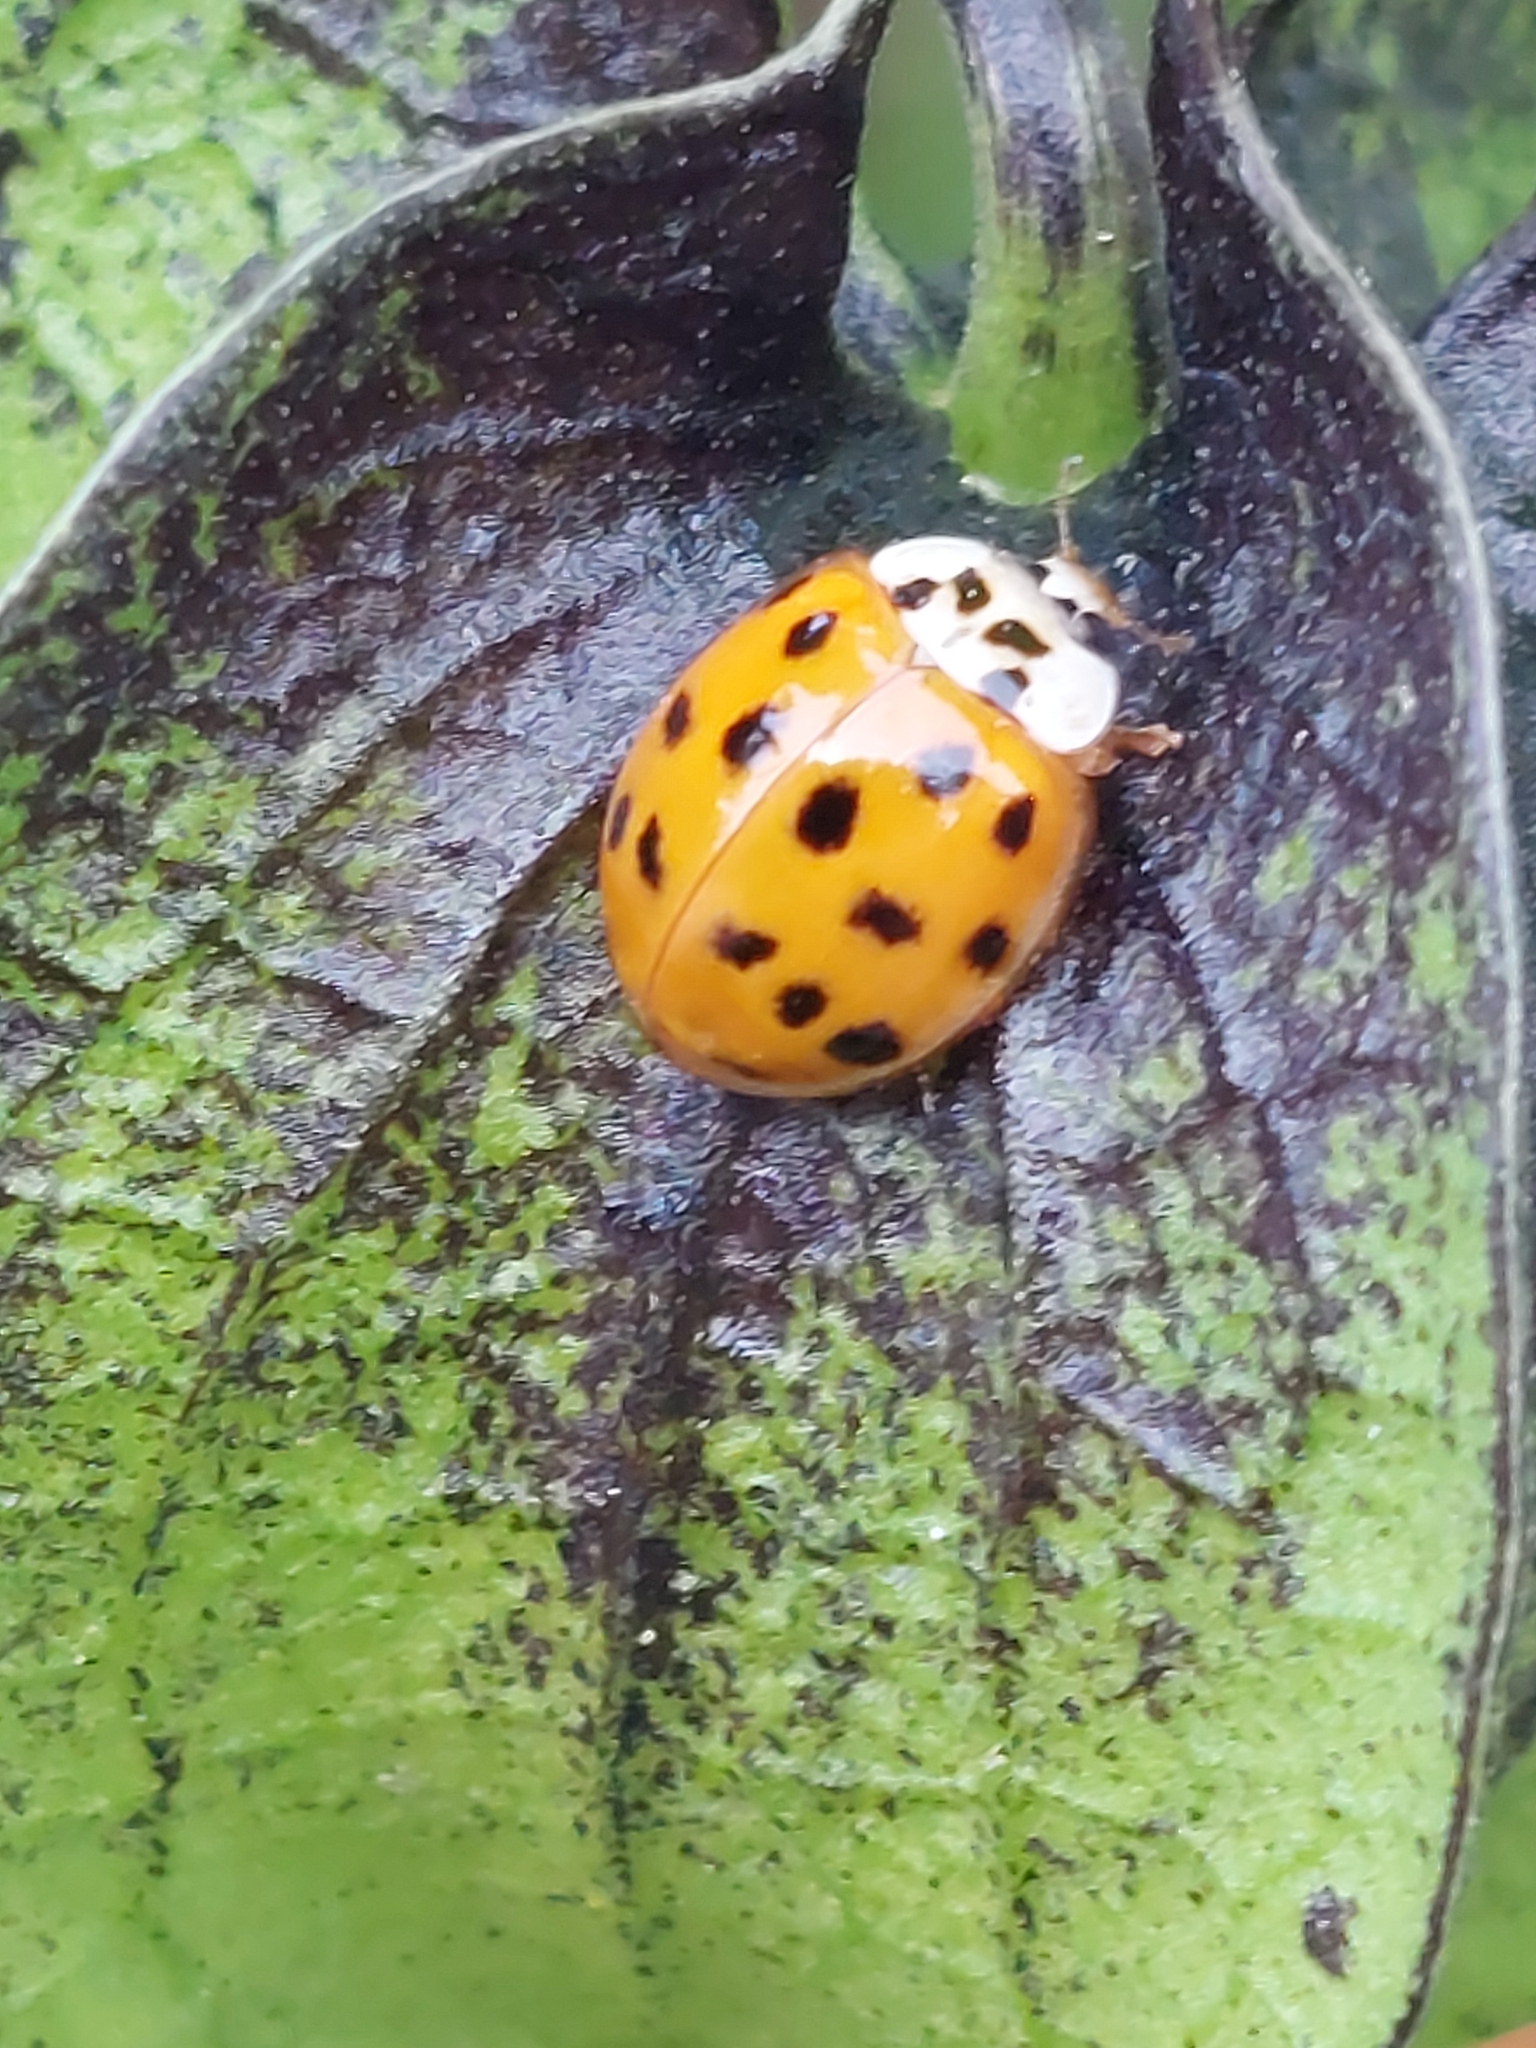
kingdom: Animalia
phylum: Arthropoda
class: Insecta
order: Coleoptera
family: Coccinellidae
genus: Harmonia
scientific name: Harmonia axyridis
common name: Harlequin ladybird
